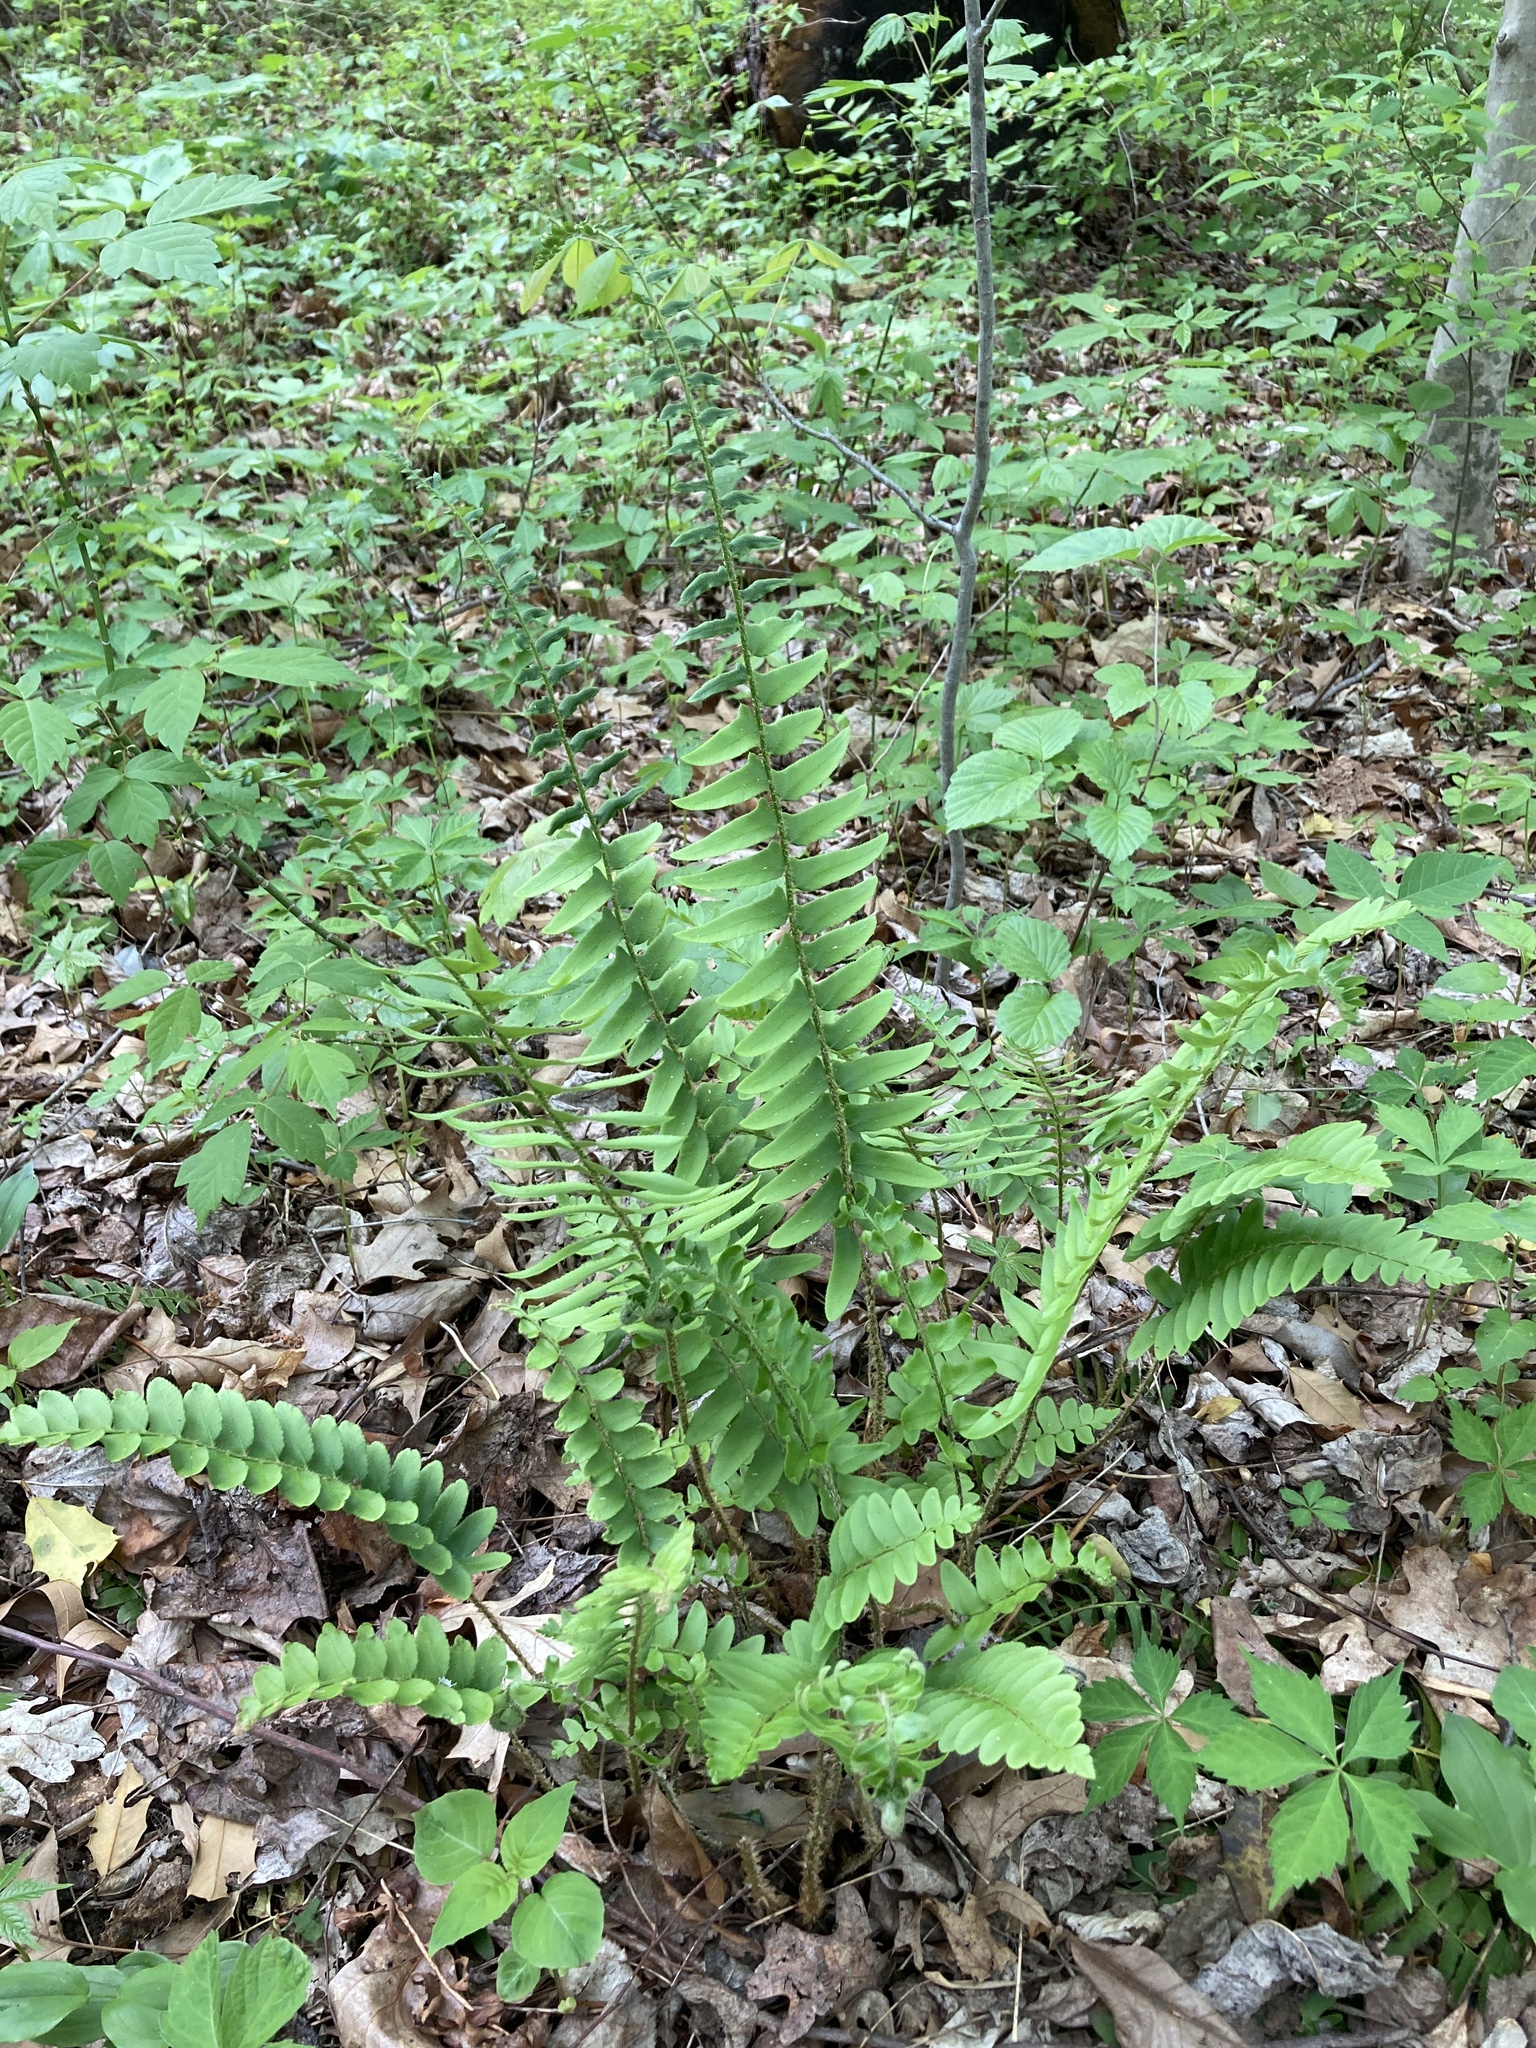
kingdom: Plantae
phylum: Tracheophyta
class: Polypodiopsida
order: Polypodiales
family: Dryopteridaceae
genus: Polystichum
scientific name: Polystichum acrostichoides
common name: Christmas fern
